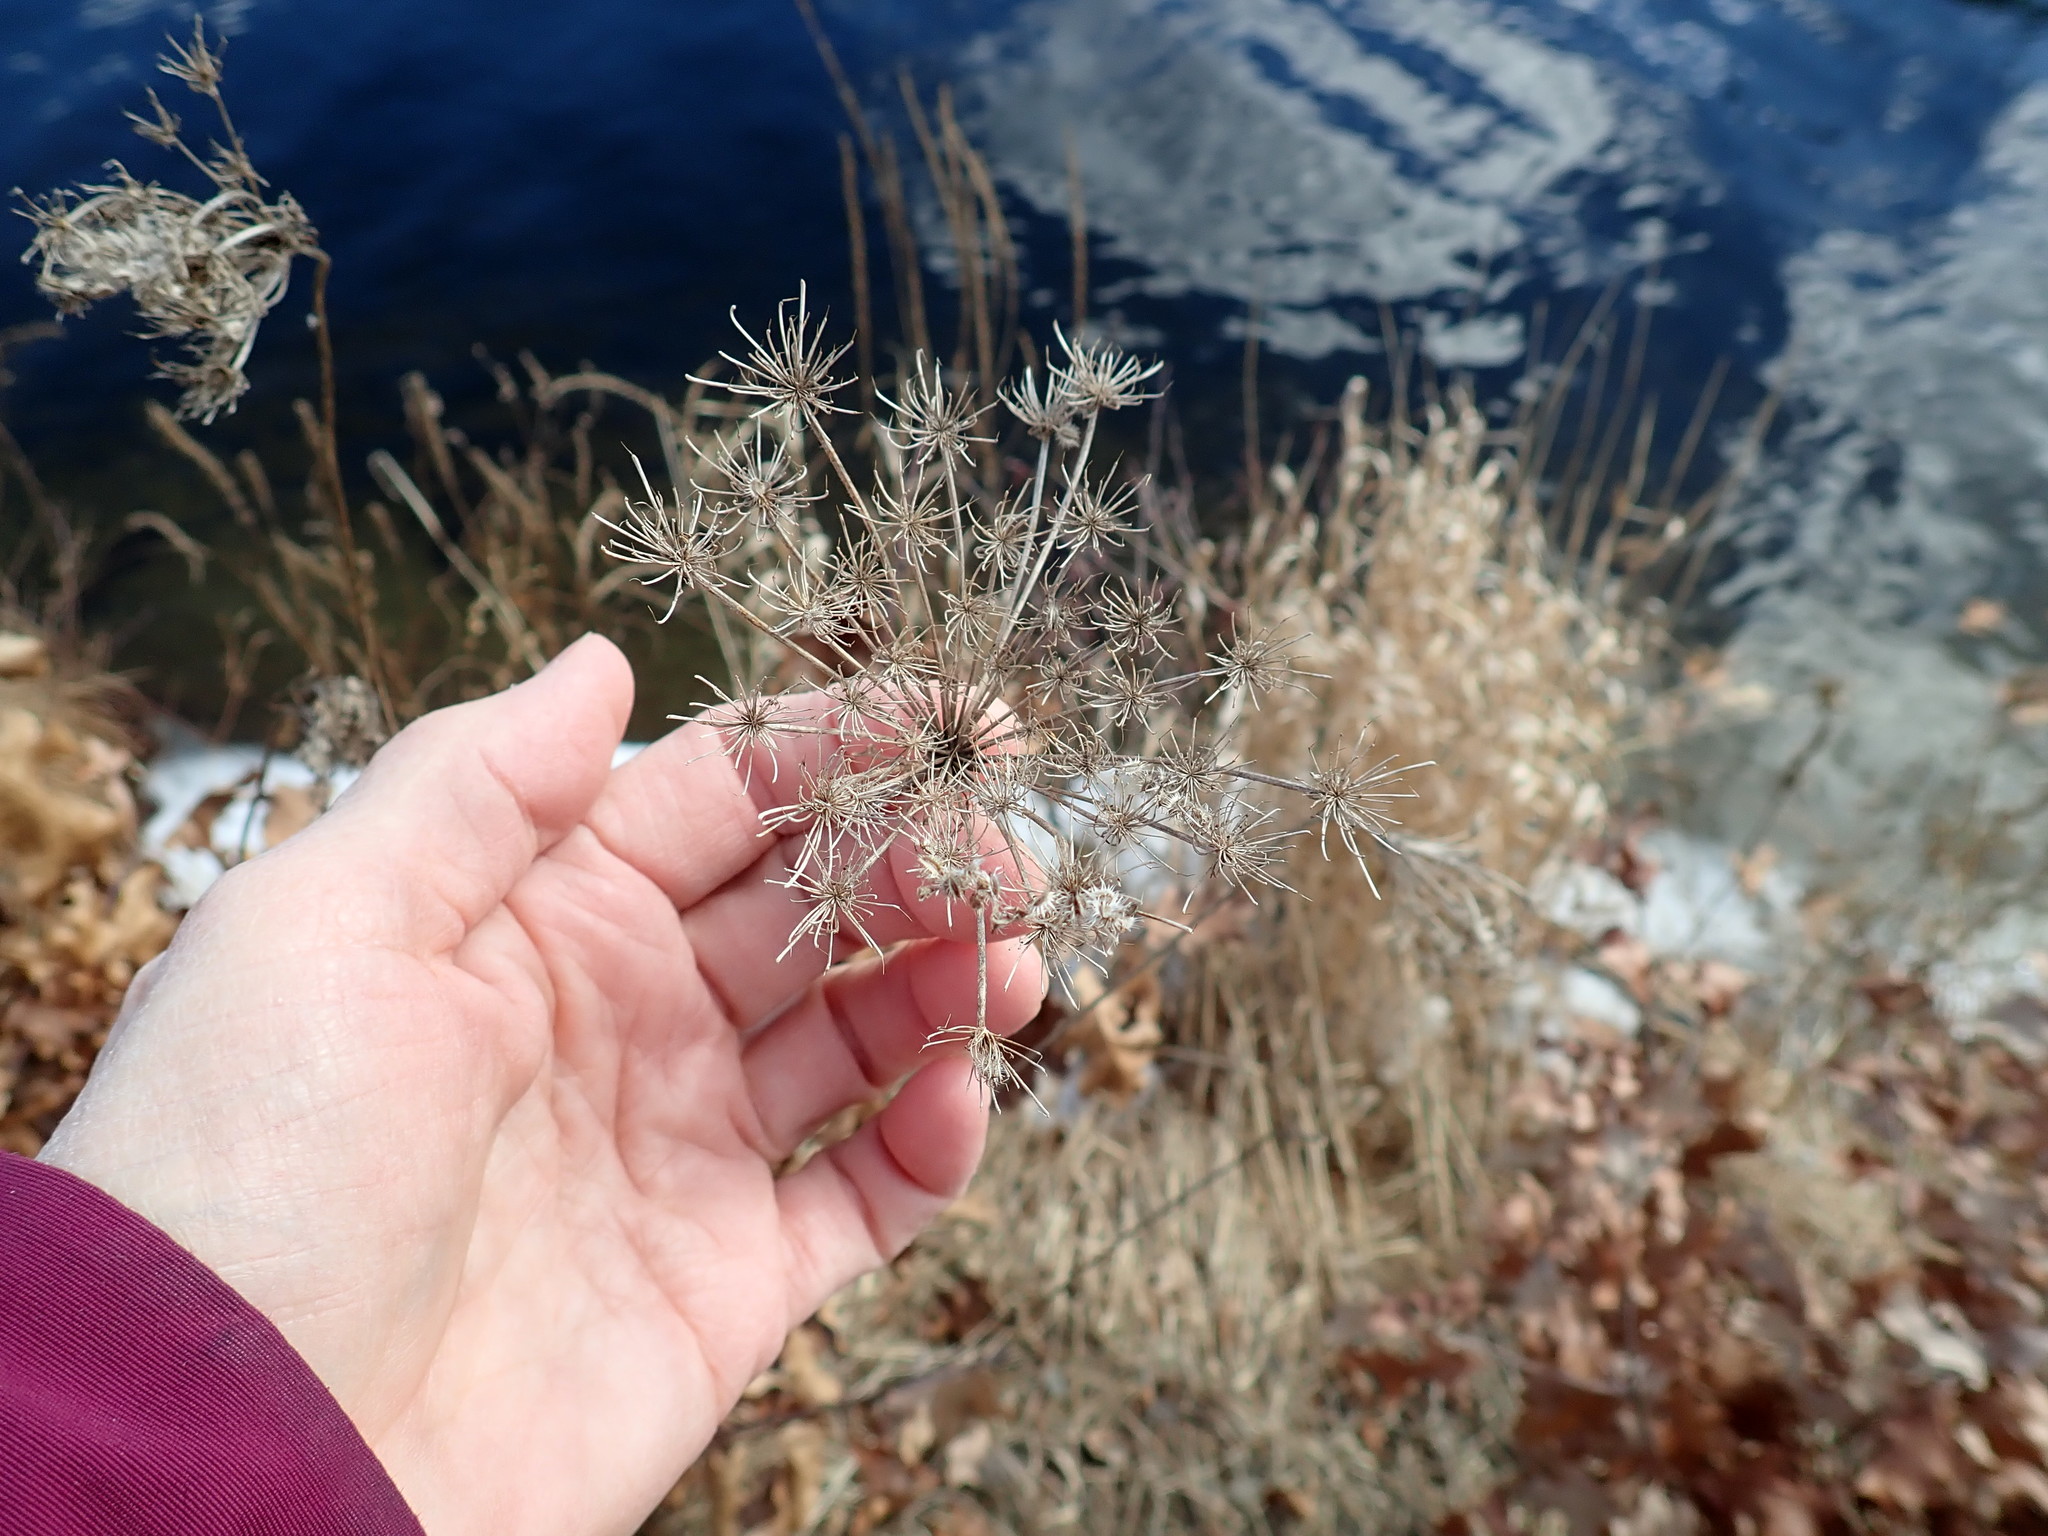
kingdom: Plantae
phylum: Tracheophyta
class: Magnoliopsida
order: Apiales
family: Apiaceae
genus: Daucus
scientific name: Daucus carota
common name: Wild carrot
